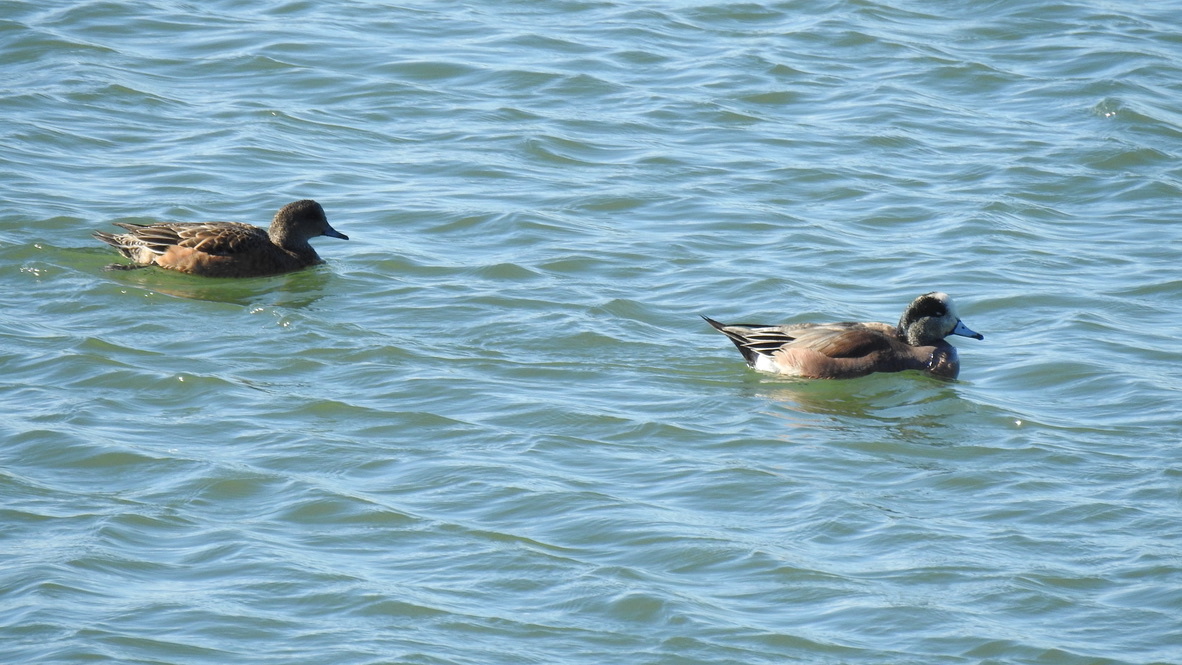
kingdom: Animalia
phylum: Chordata
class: Aves
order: Anseriformes
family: Anatidae
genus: Mareca
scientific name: Mareca americana
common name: American wigeon
